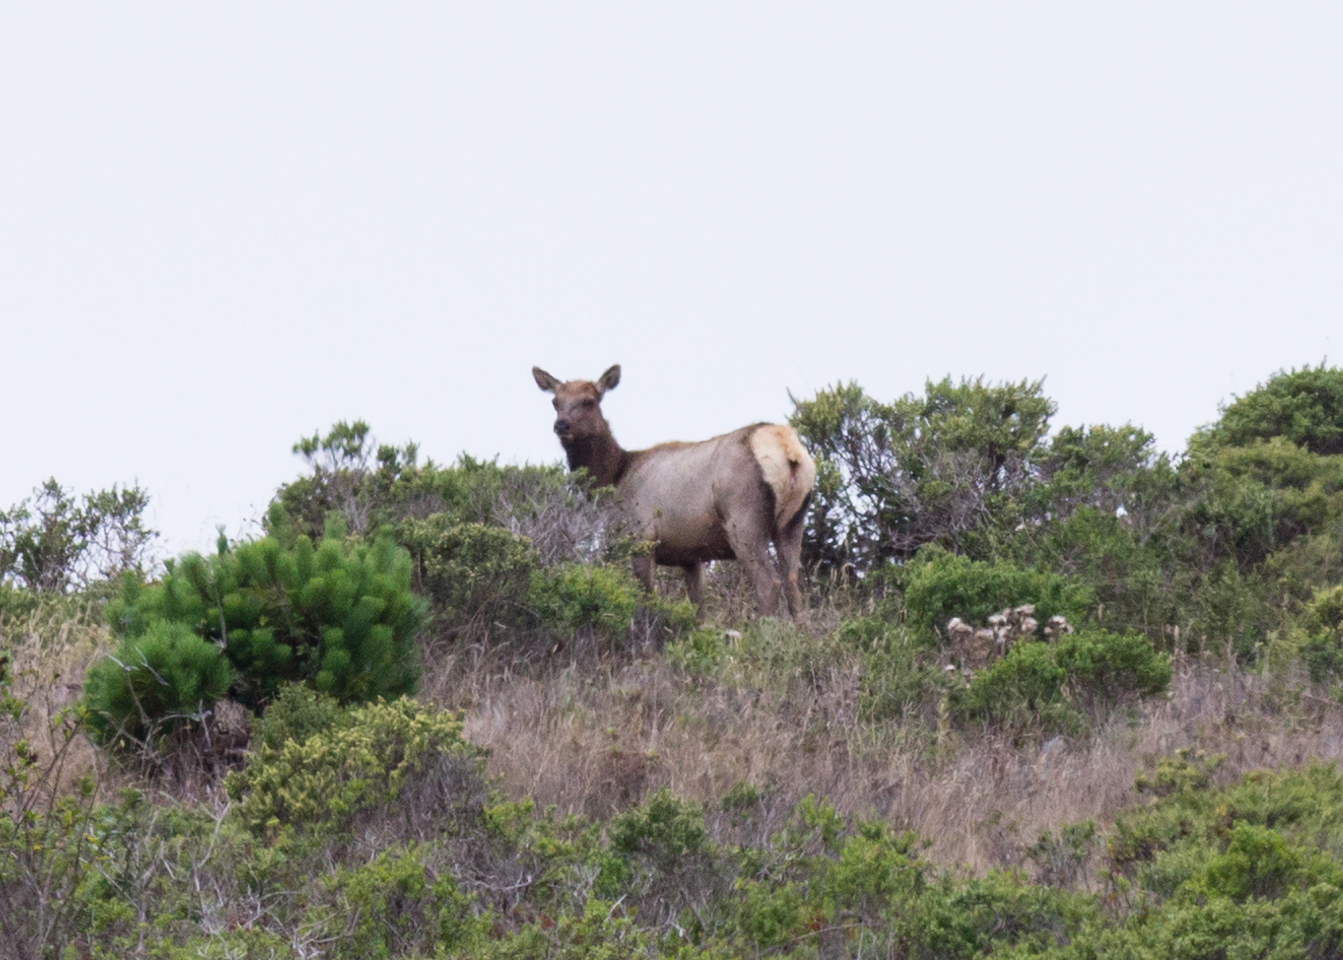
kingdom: Animalia
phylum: Chordata
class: Mammalia
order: Artiodactyla
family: Cervidae
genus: Cervus
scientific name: Cervus elaphus
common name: Red deer
